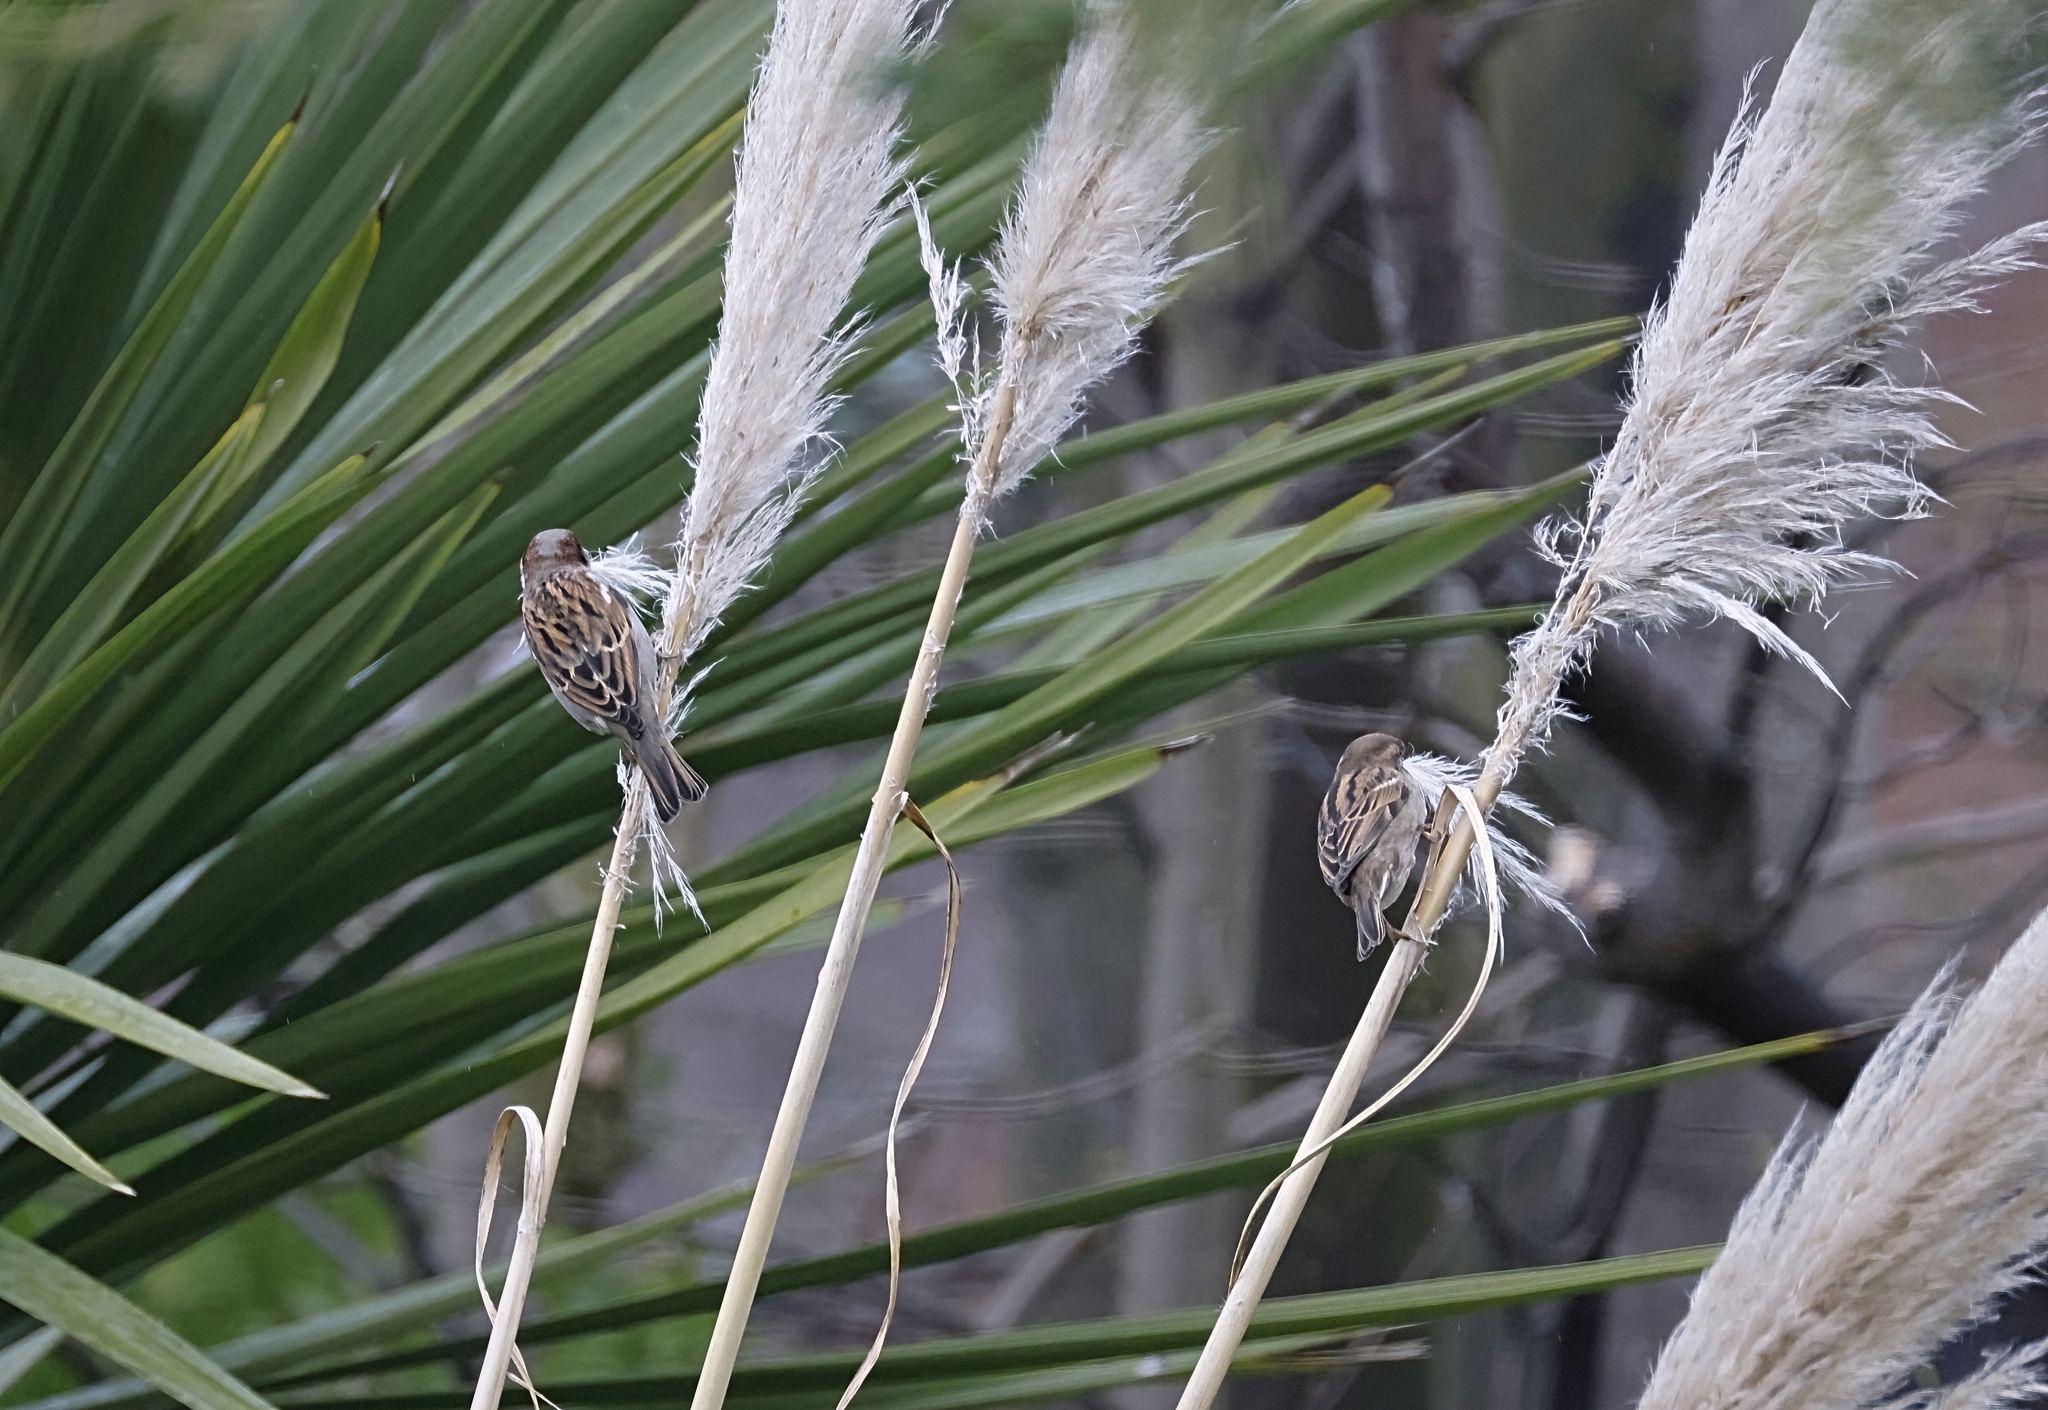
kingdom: Animalia
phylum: Chordata
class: Aves
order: Passeriformes
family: Passeridae
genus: Passer
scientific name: Passer domesticus
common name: House sparrow
